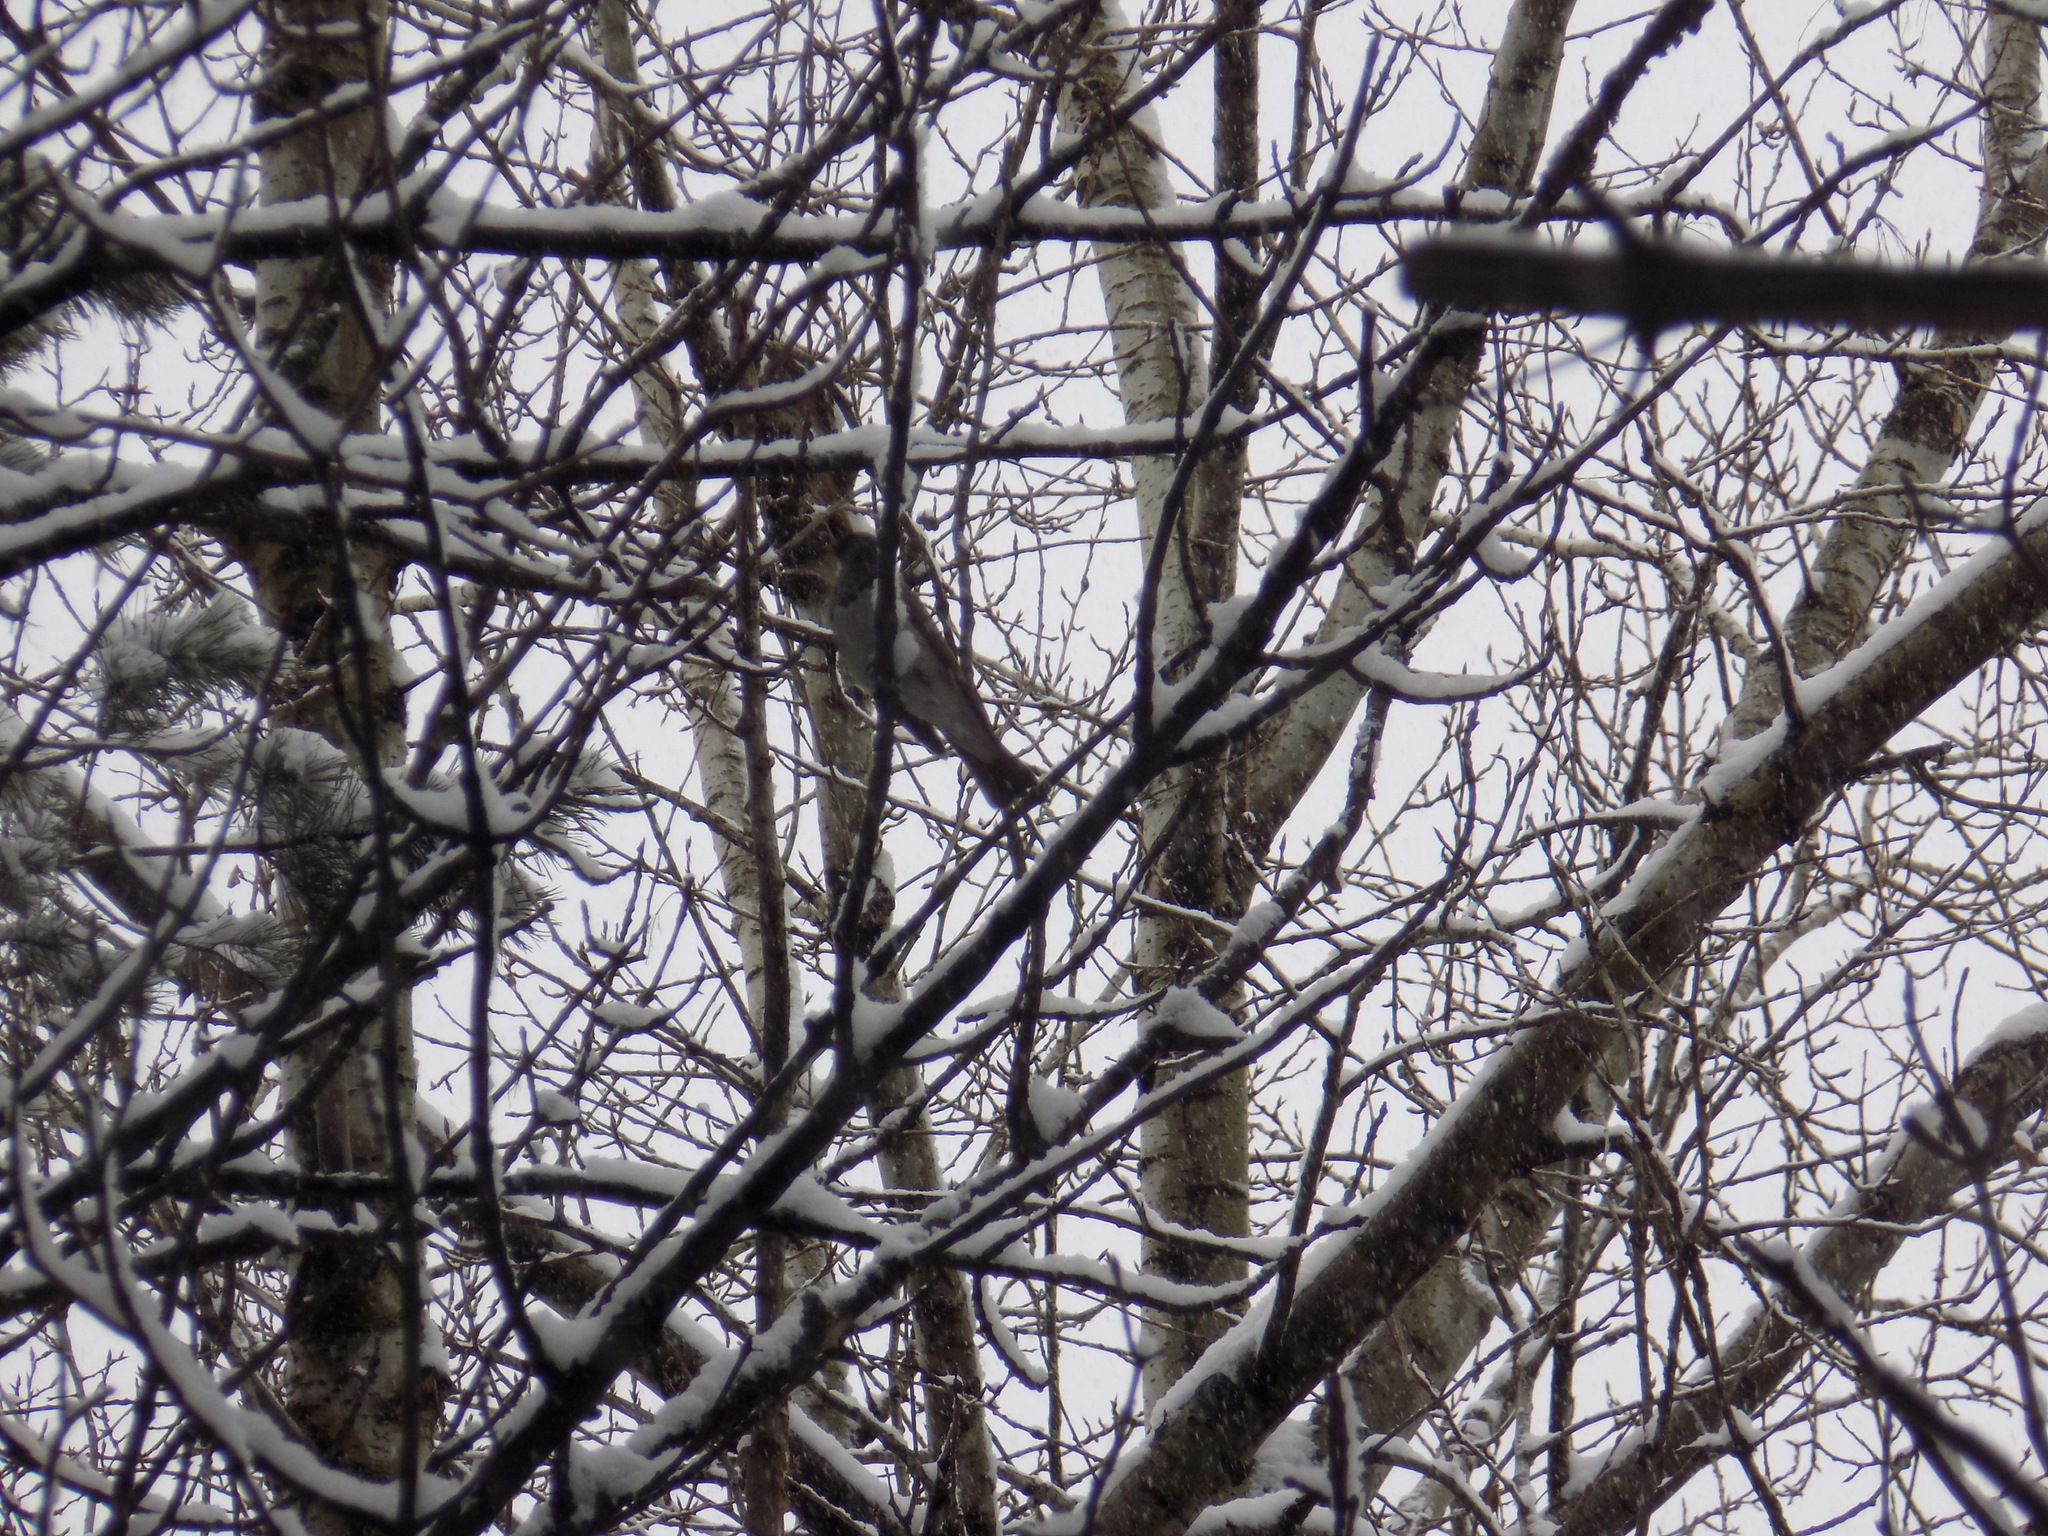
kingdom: Animalia
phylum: Chordata
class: Aves
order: Passeriformes
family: Turdidae
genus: Turdus
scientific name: Turdus atrogularis
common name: Black-throated thrush
